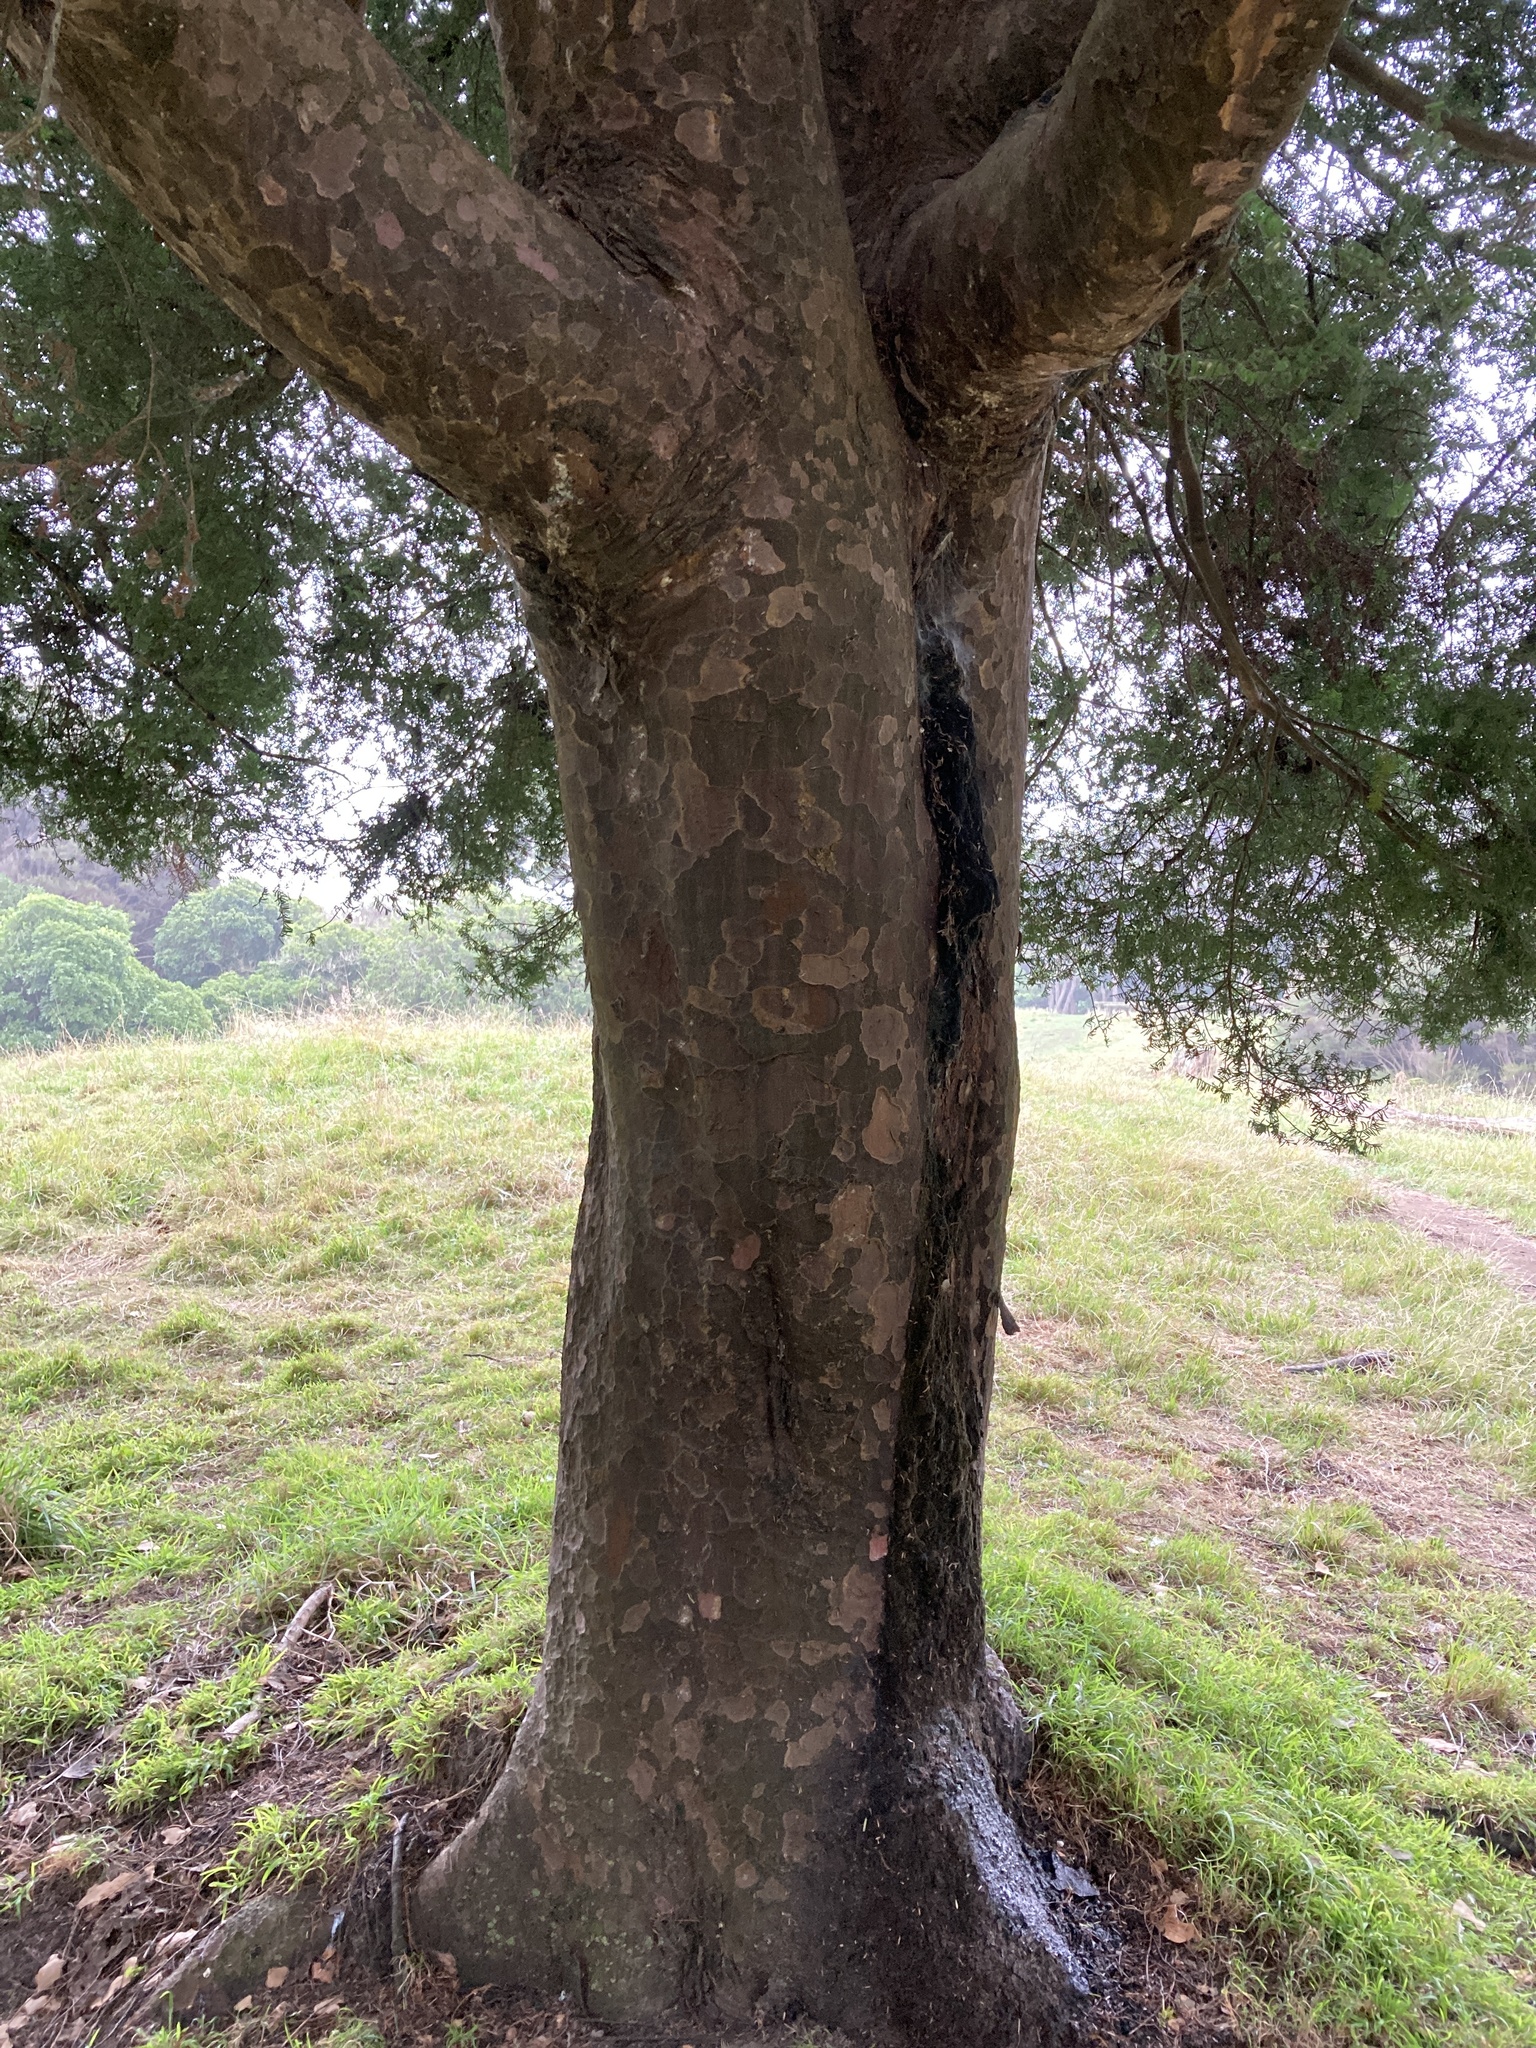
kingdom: Plantae
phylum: Tracheophyta
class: Pinopsida
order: Pinales
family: Podocarpaceae
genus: Prumnopitys
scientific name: Prumnopitys taxifolia
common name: Matai
